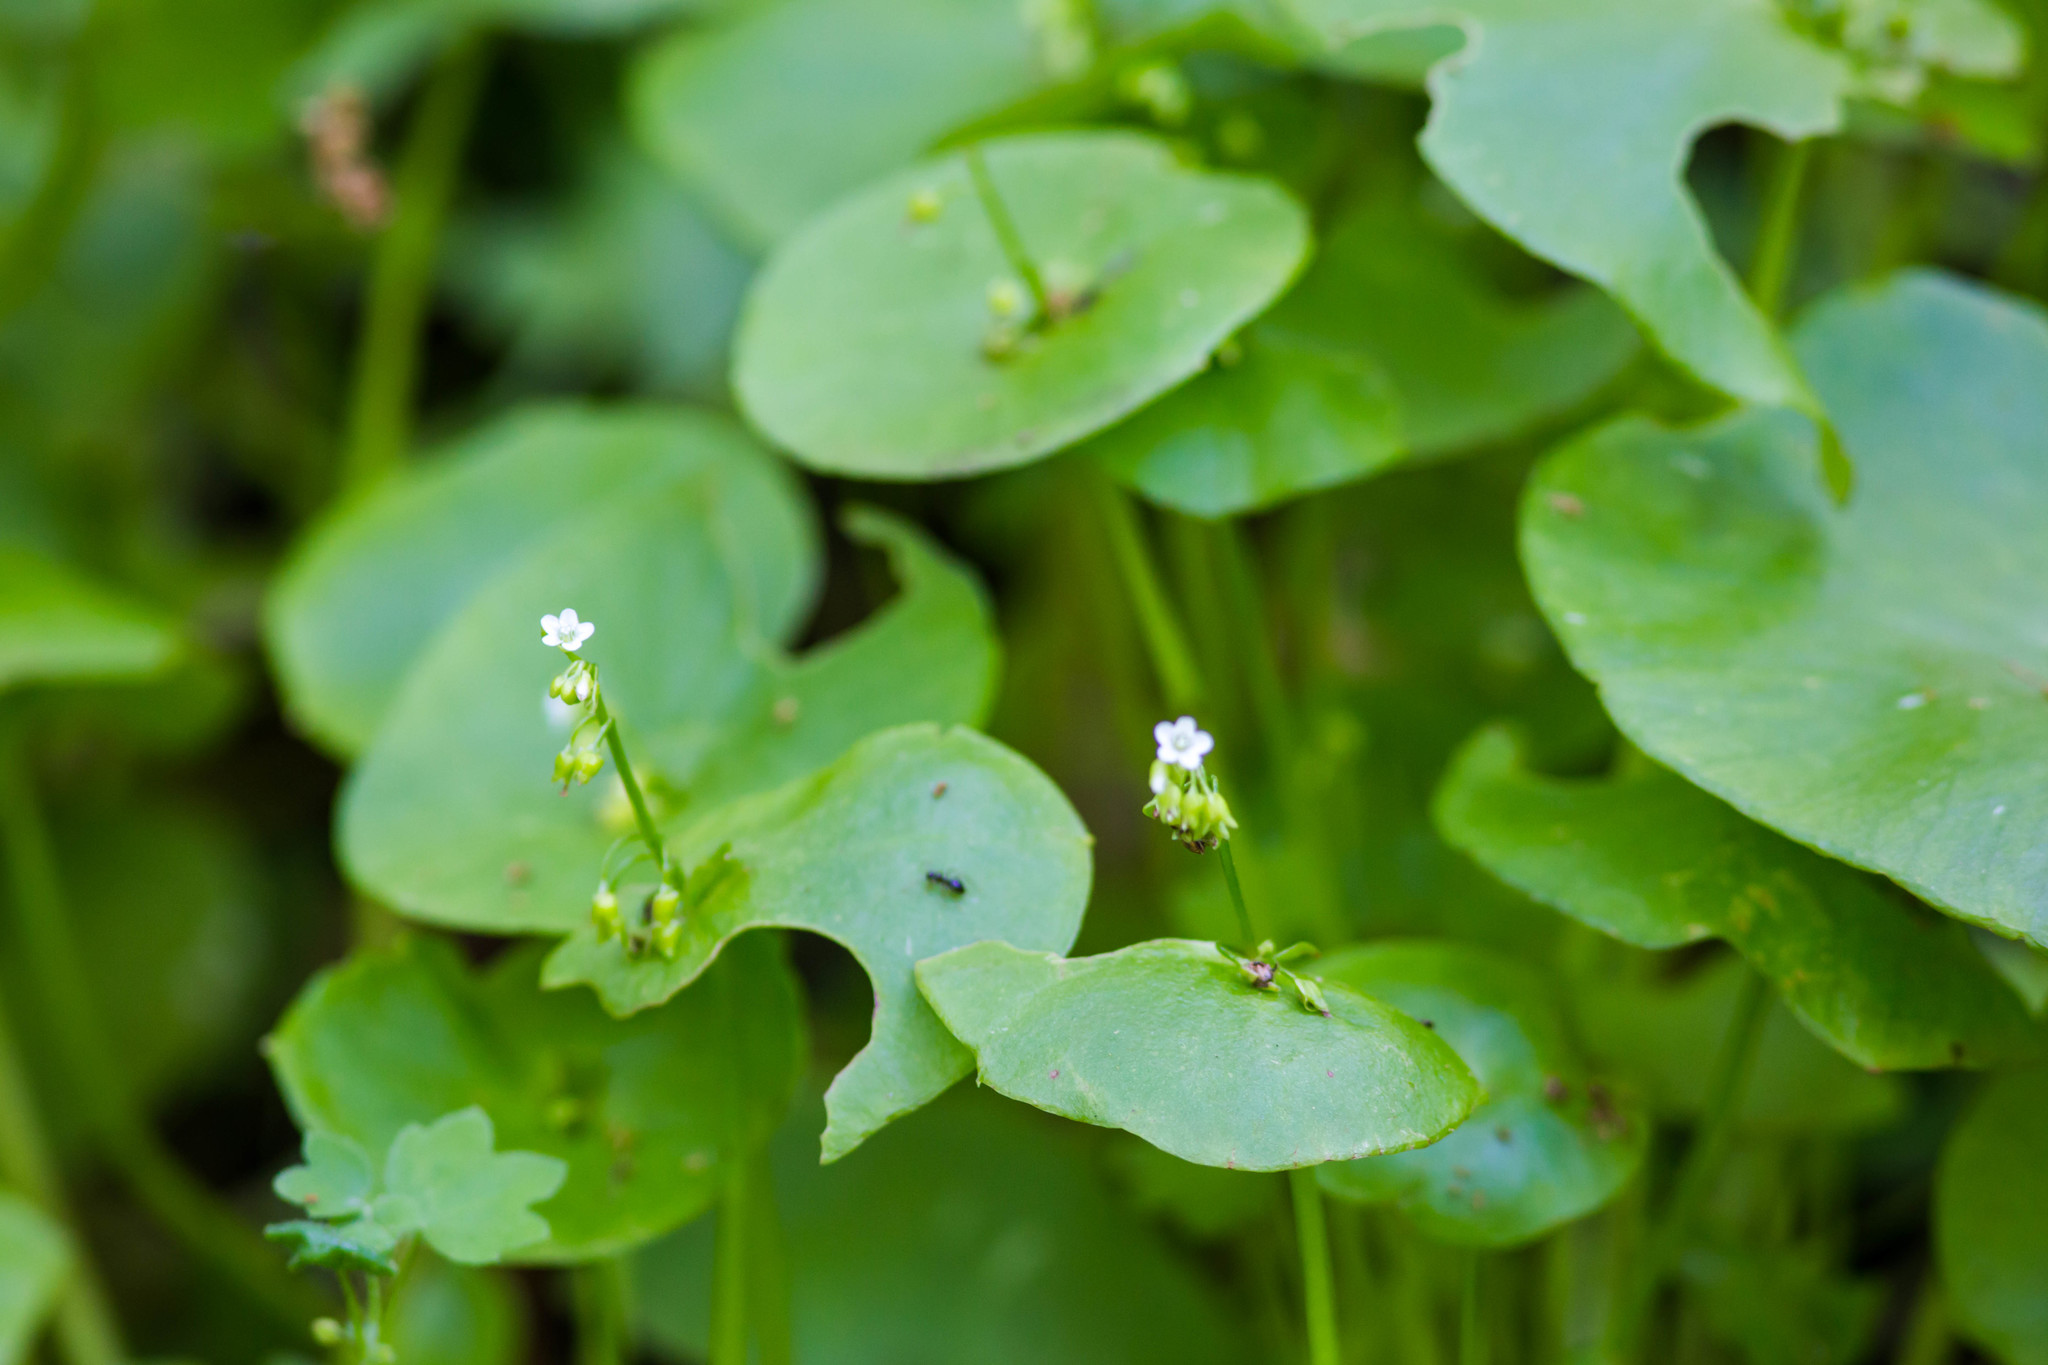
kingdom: Plantae
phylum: Tracheophyta
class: Magnoliopsida
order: Caryophyllales
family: Montiaceae
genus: Claytonia
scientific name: Claytonia perfoliata
